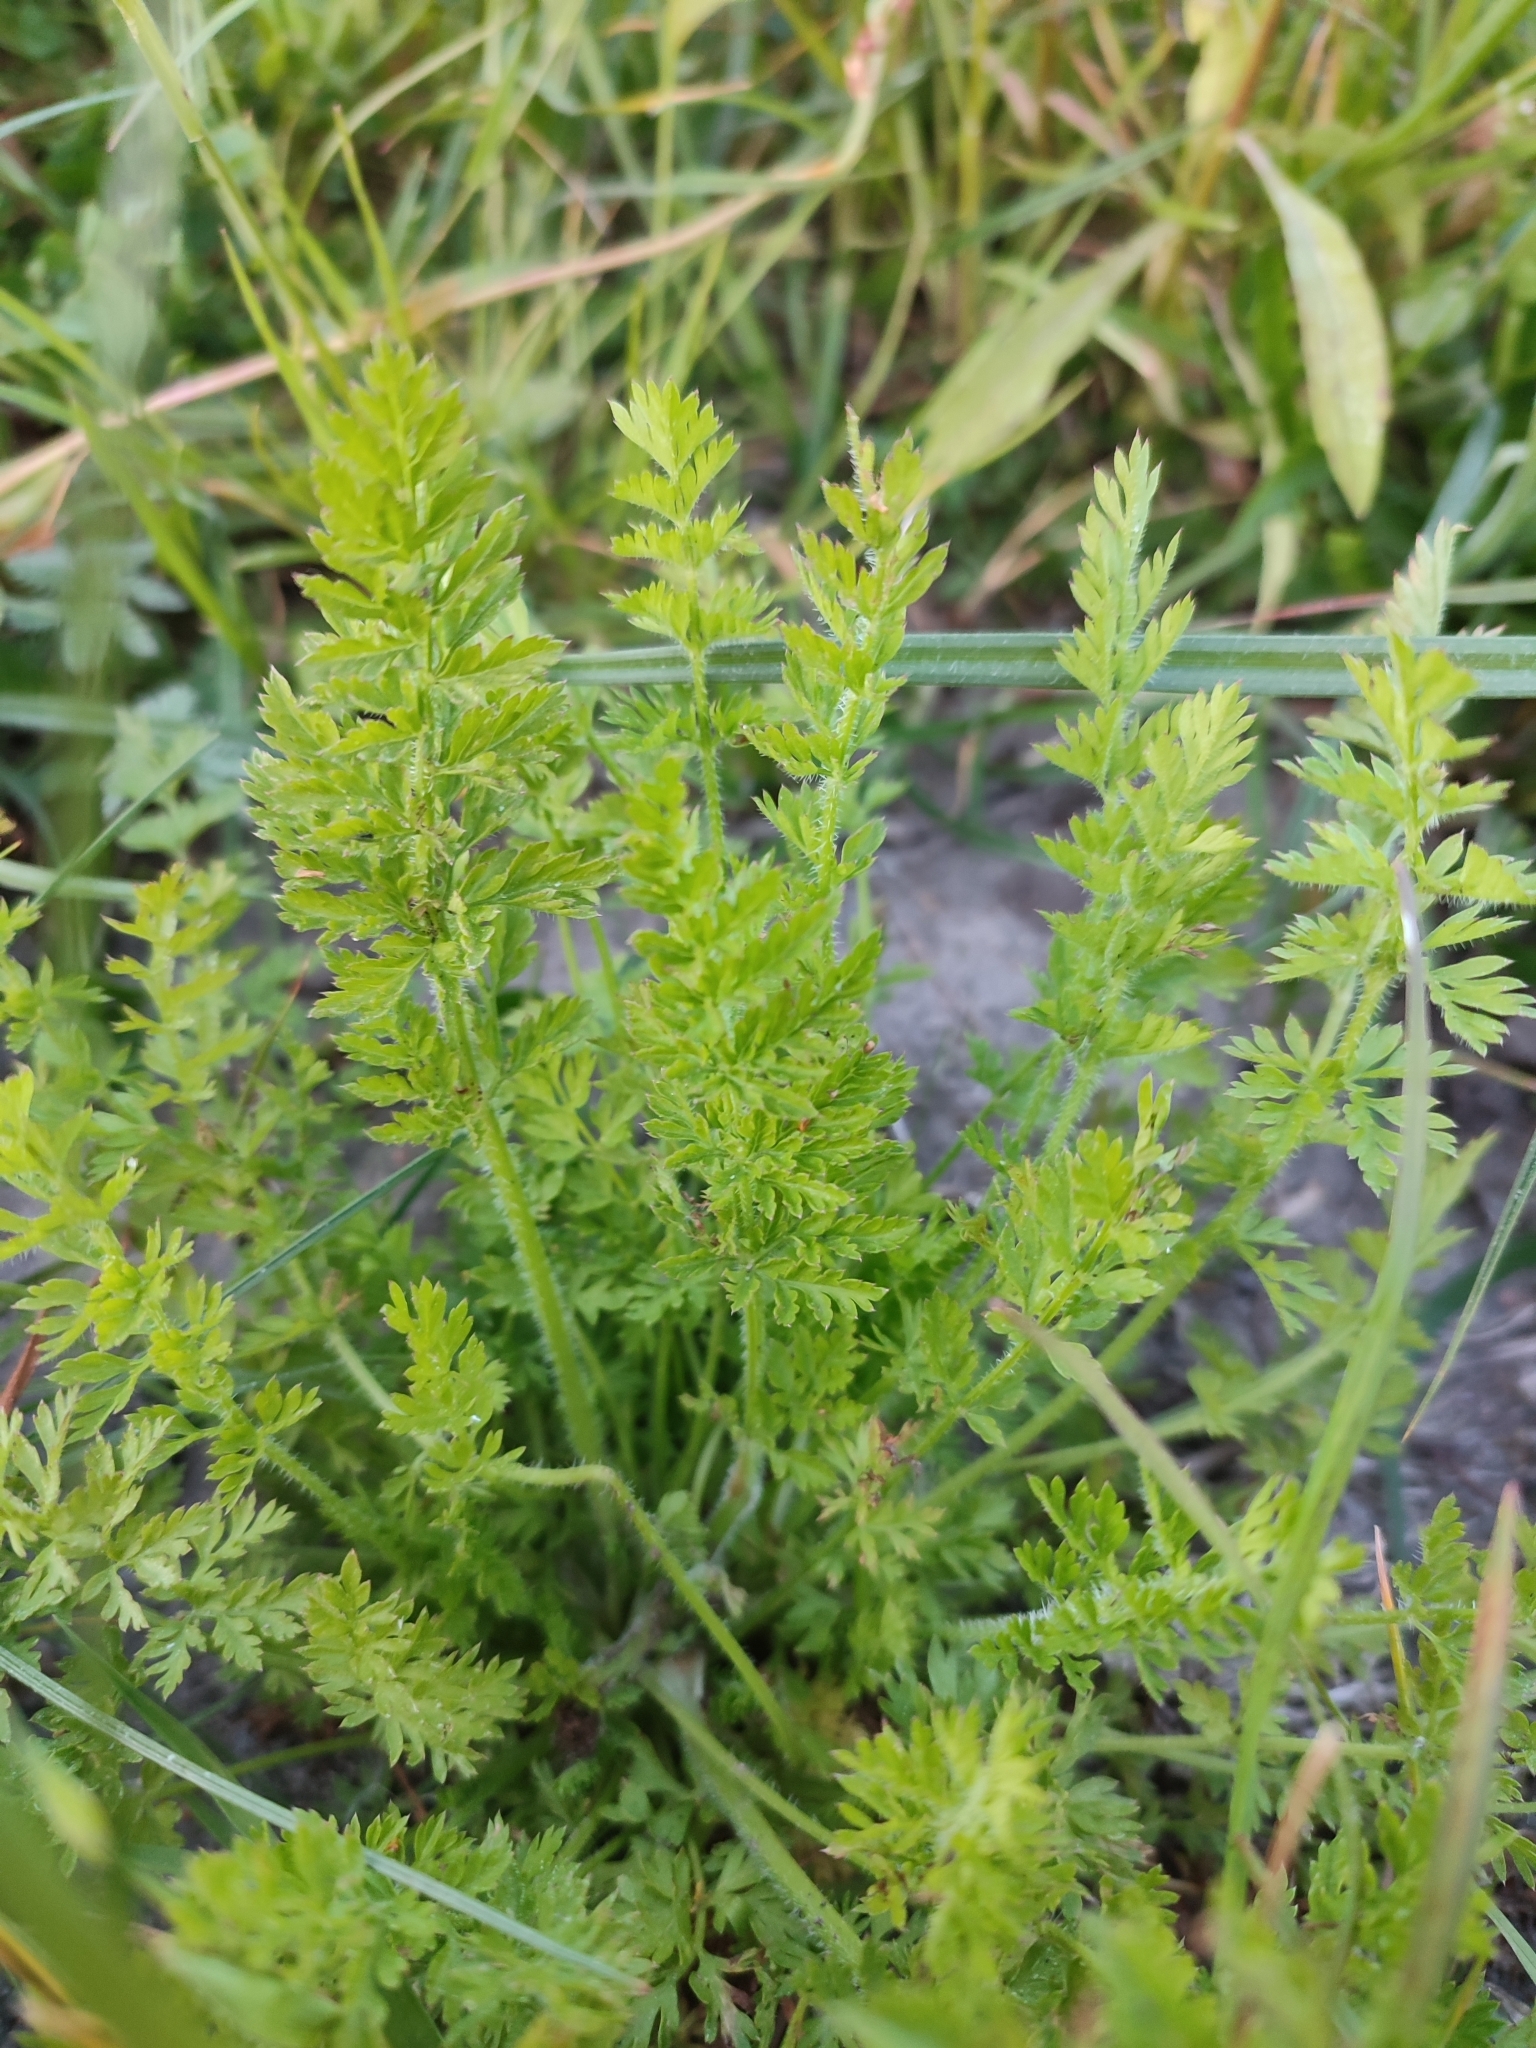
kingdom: Plantae
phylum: Tracheophyta
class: Magnoliopsida
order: Apiales
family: Apiaceae
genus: Daucus
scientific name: Daucus carota
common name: Wild carrot
